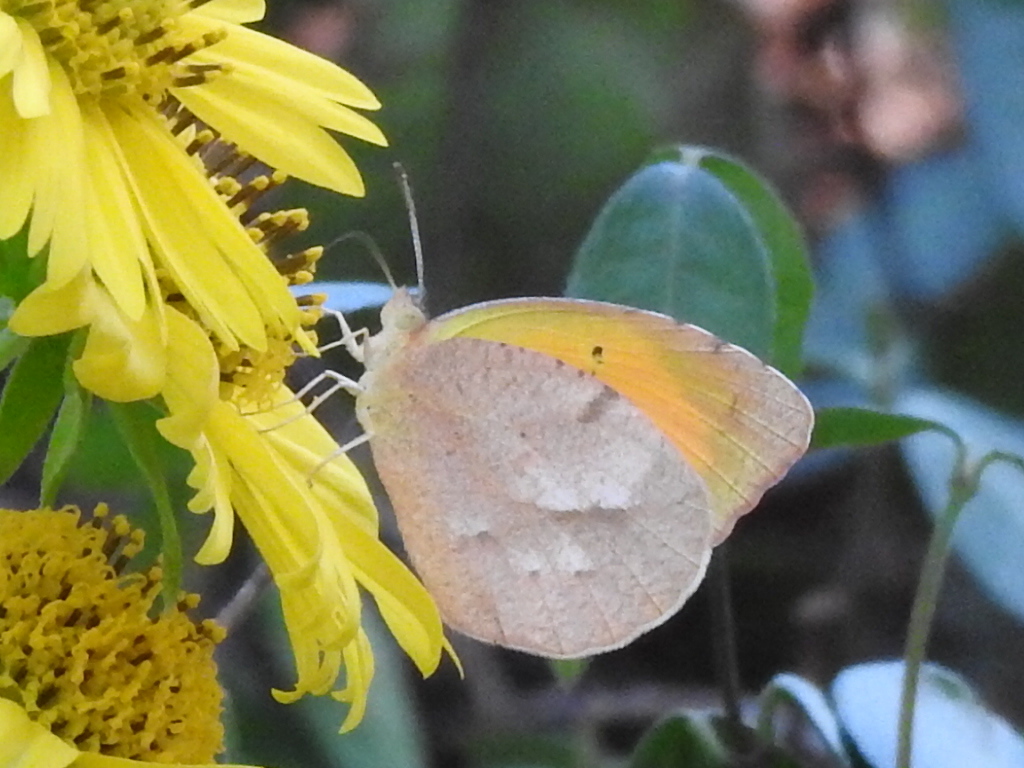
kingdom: Animalia
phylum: Arthropoda
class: Insecta
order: Lepidoptera
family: Pieridae
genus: Abaeis
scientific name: Abaeis nicippe
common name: Sleepy orange
